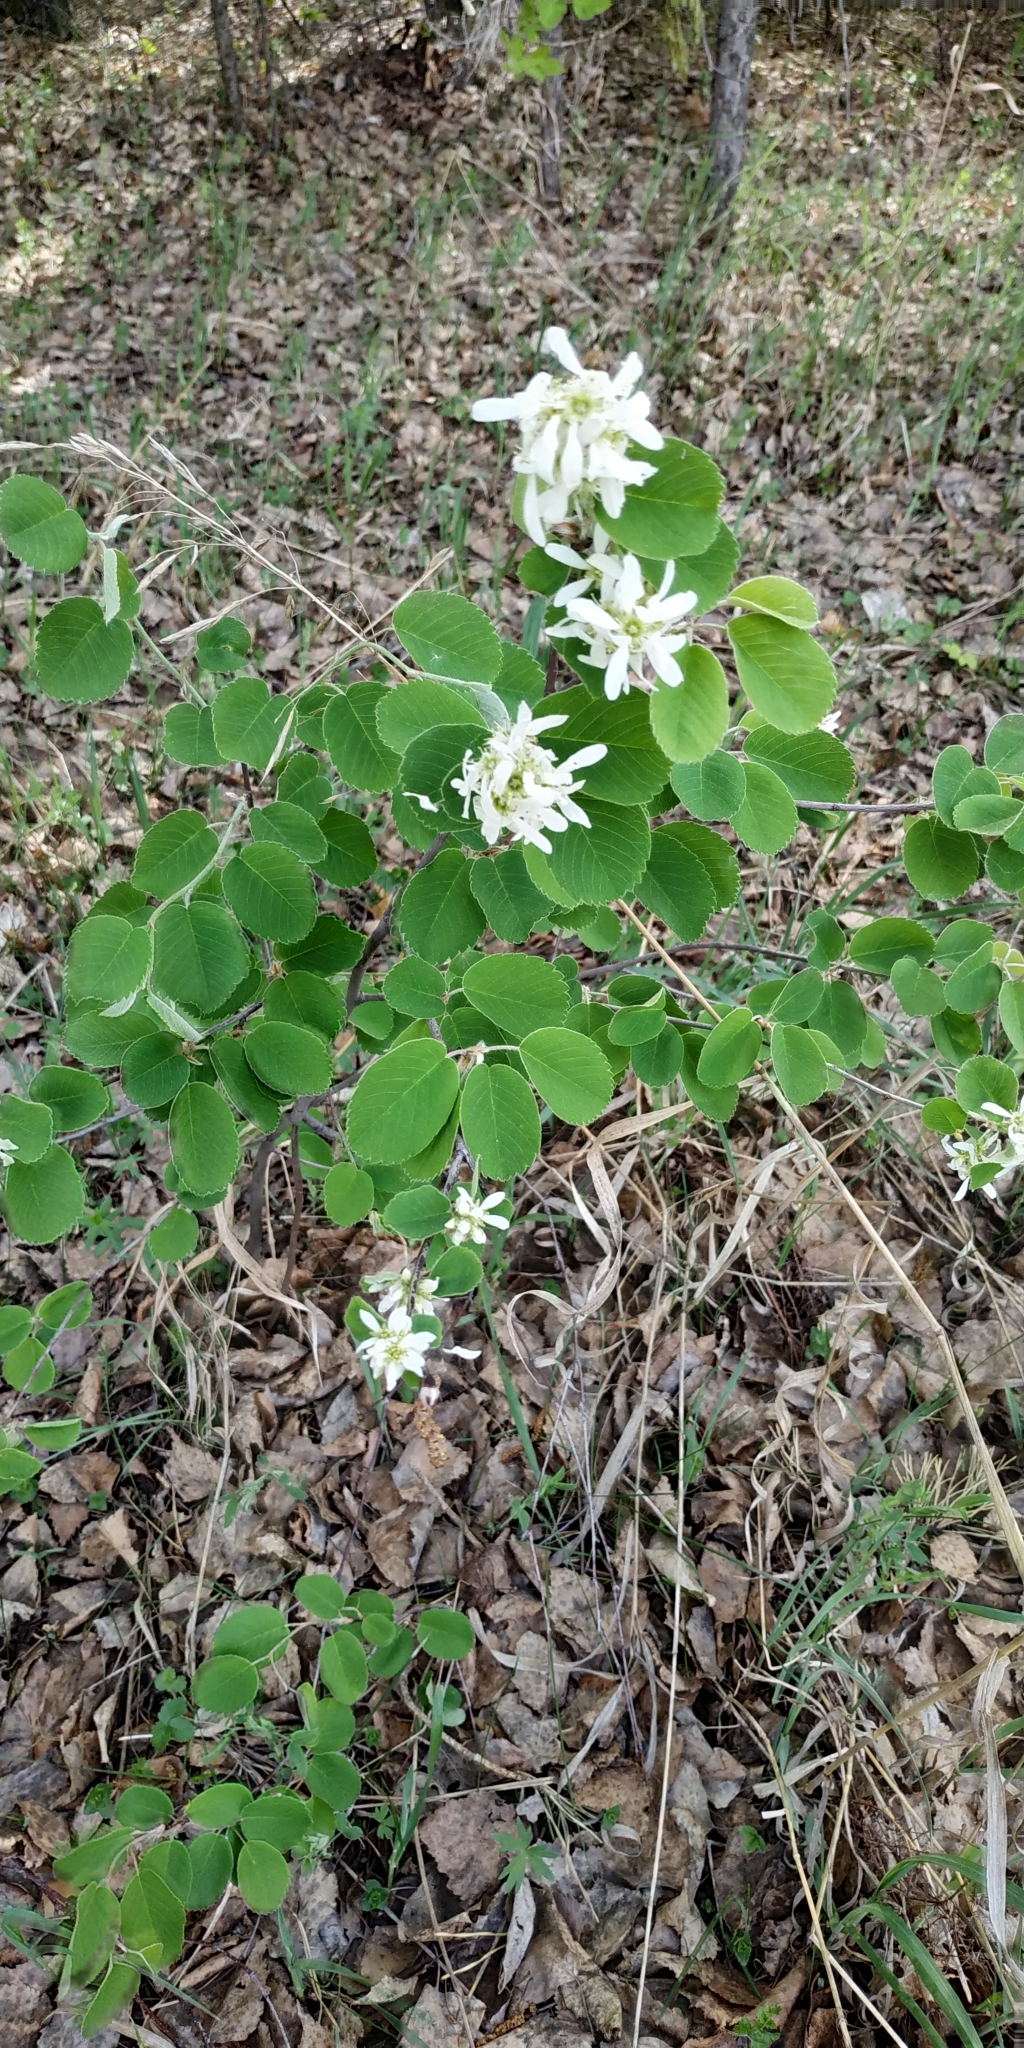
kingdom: Plantae
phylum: Tracheophyta
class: Magnoliopsida
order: Rosales
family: Rosaceae
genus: Amelanchier
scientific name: Amelanchier alnifolia
